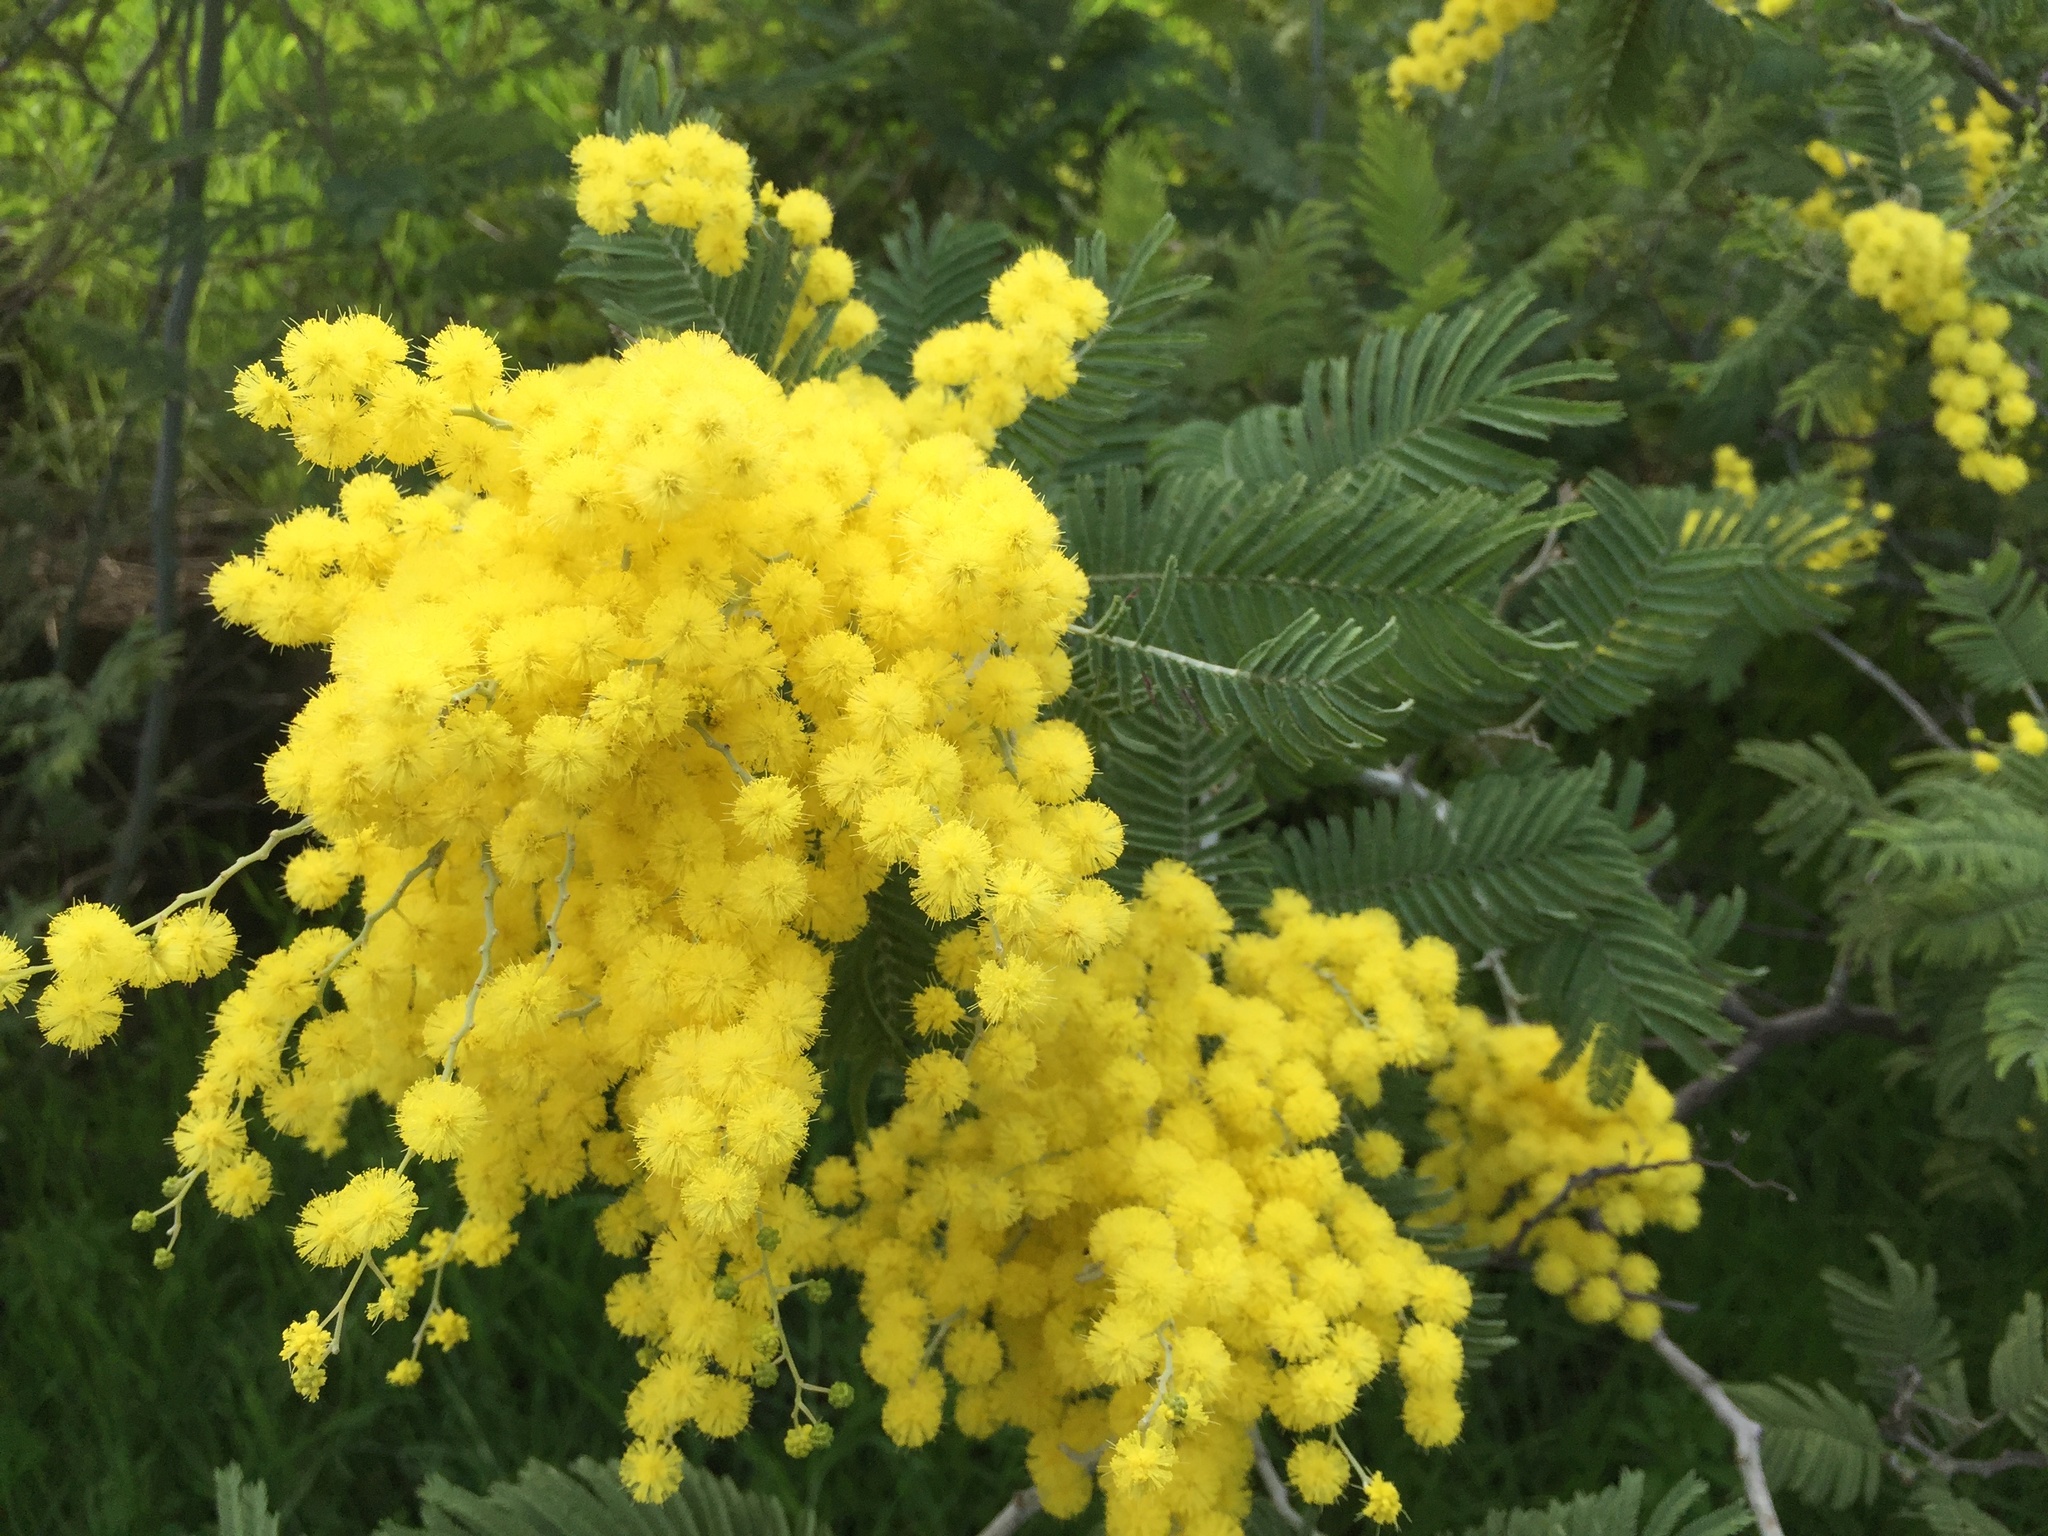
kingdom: Plantae
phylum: Tracheophyta
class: Magnoliopsida
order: Fabales
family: Fabaceae
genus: Acacia
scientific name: Acacia dealbata
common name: Silver wattle
